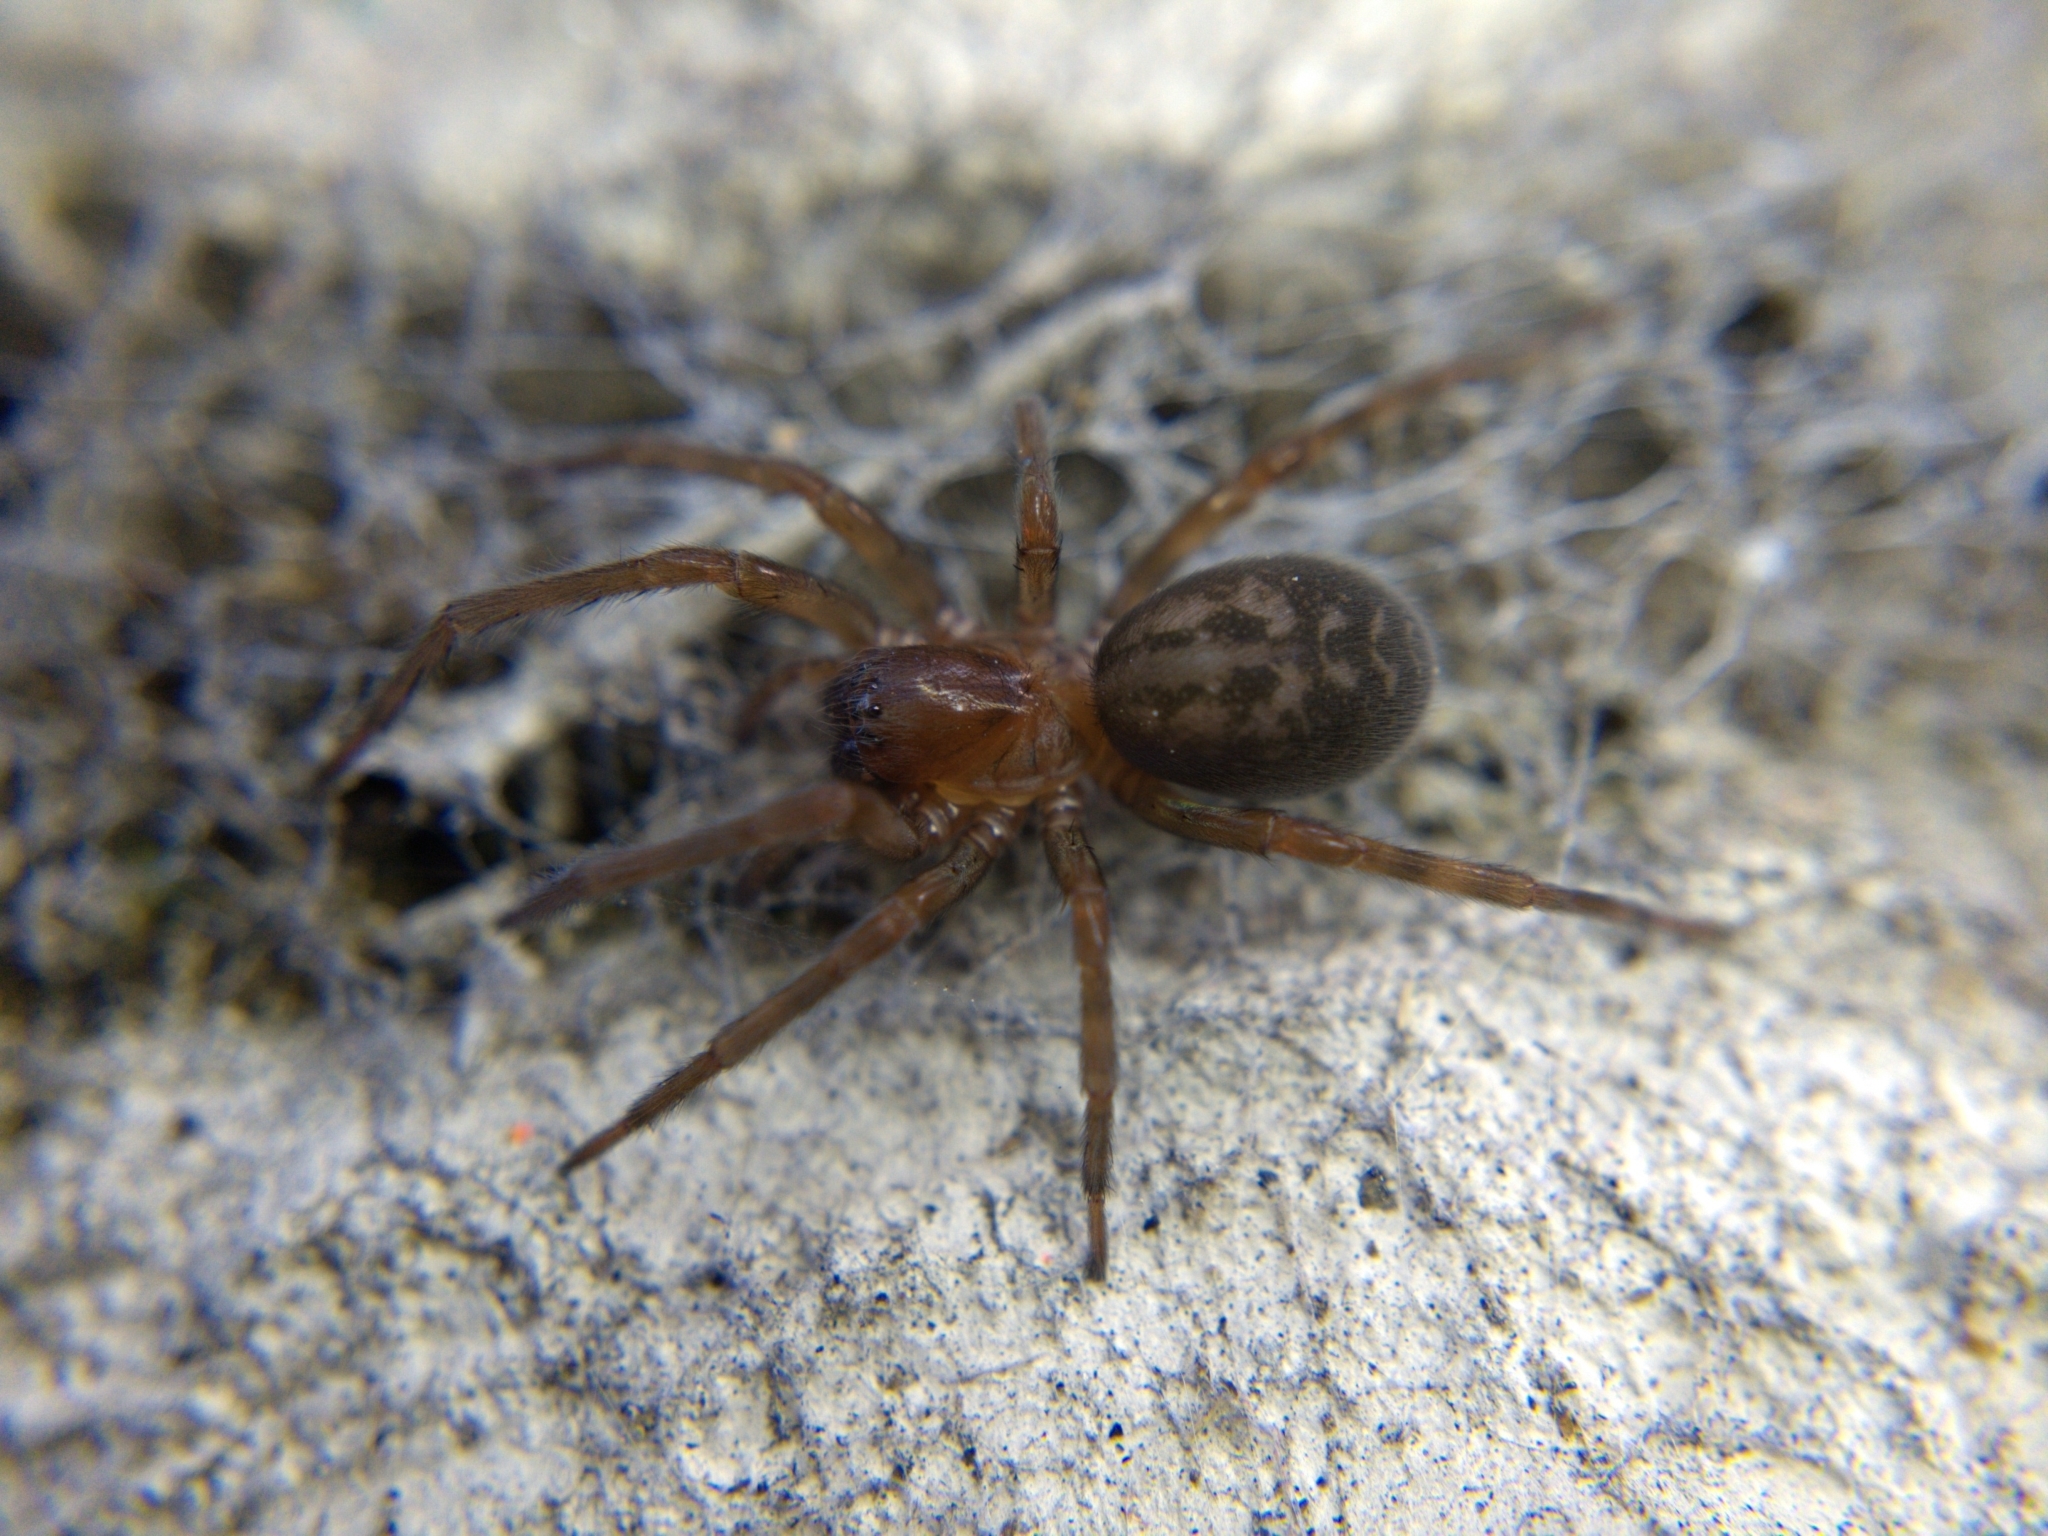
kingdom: Animalia
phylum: Arthropoda
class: Arachnida
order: Araneae
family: Amaurobiidae
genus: Amaurobius
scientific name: Amaurobius ferox
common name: Black laceweaver
